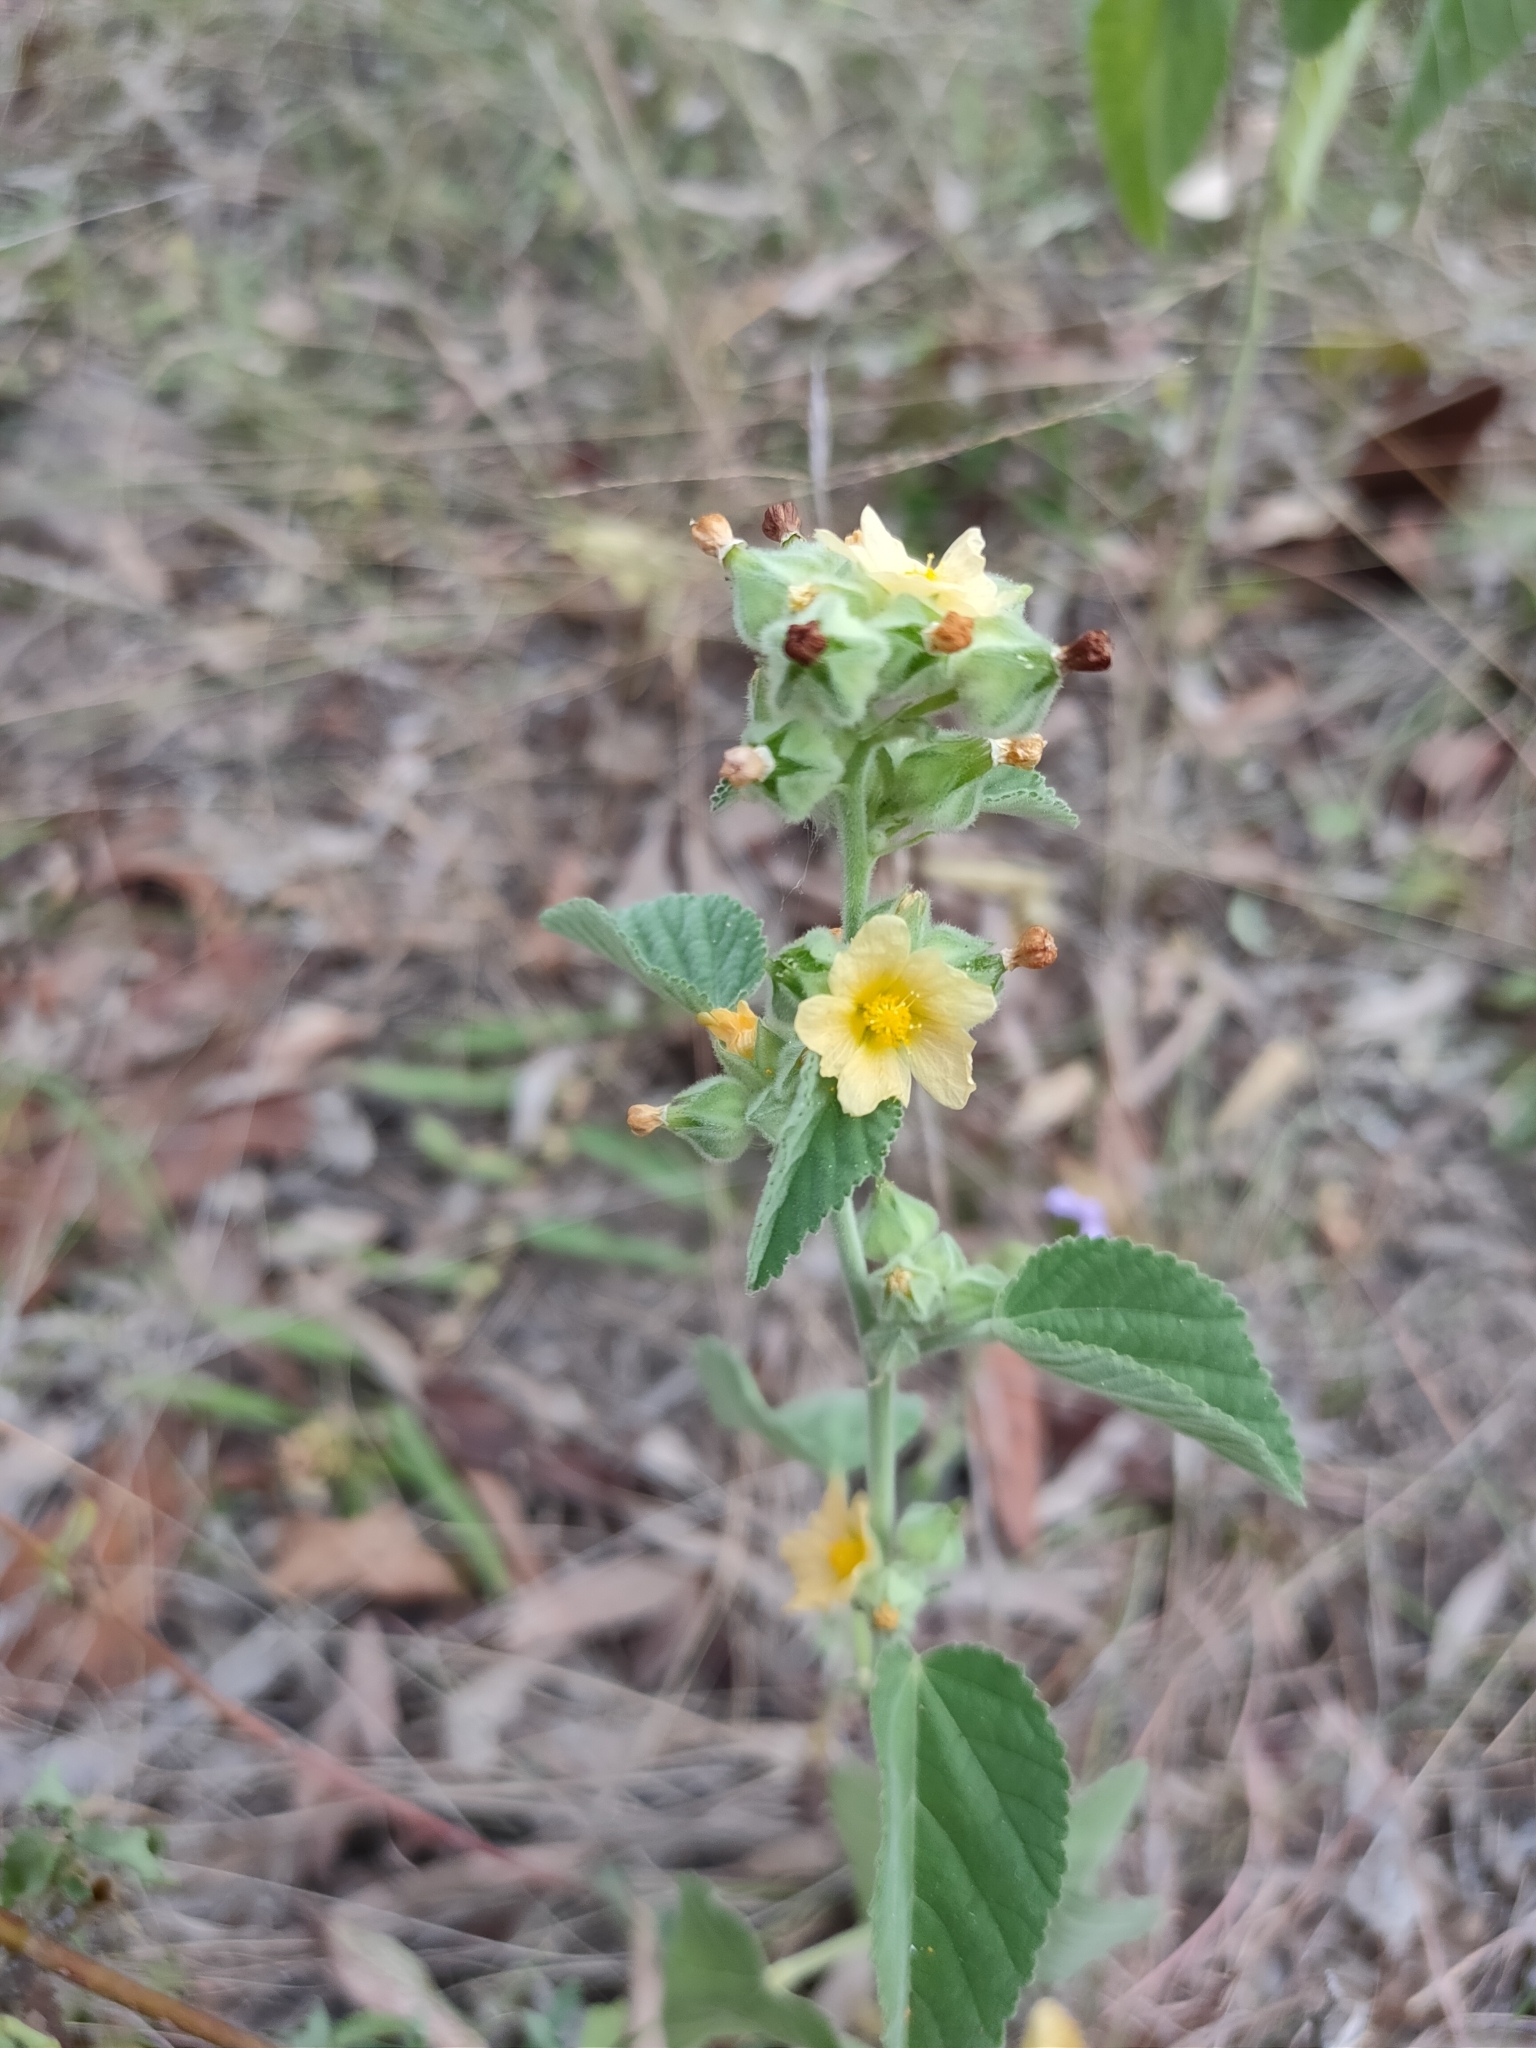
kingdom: Plantae
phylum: Tracheophyta
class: Magnoliopsida
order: Malvales
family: Malvaceae
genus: Sida
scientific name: Sida cordifolia
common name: Ilima
